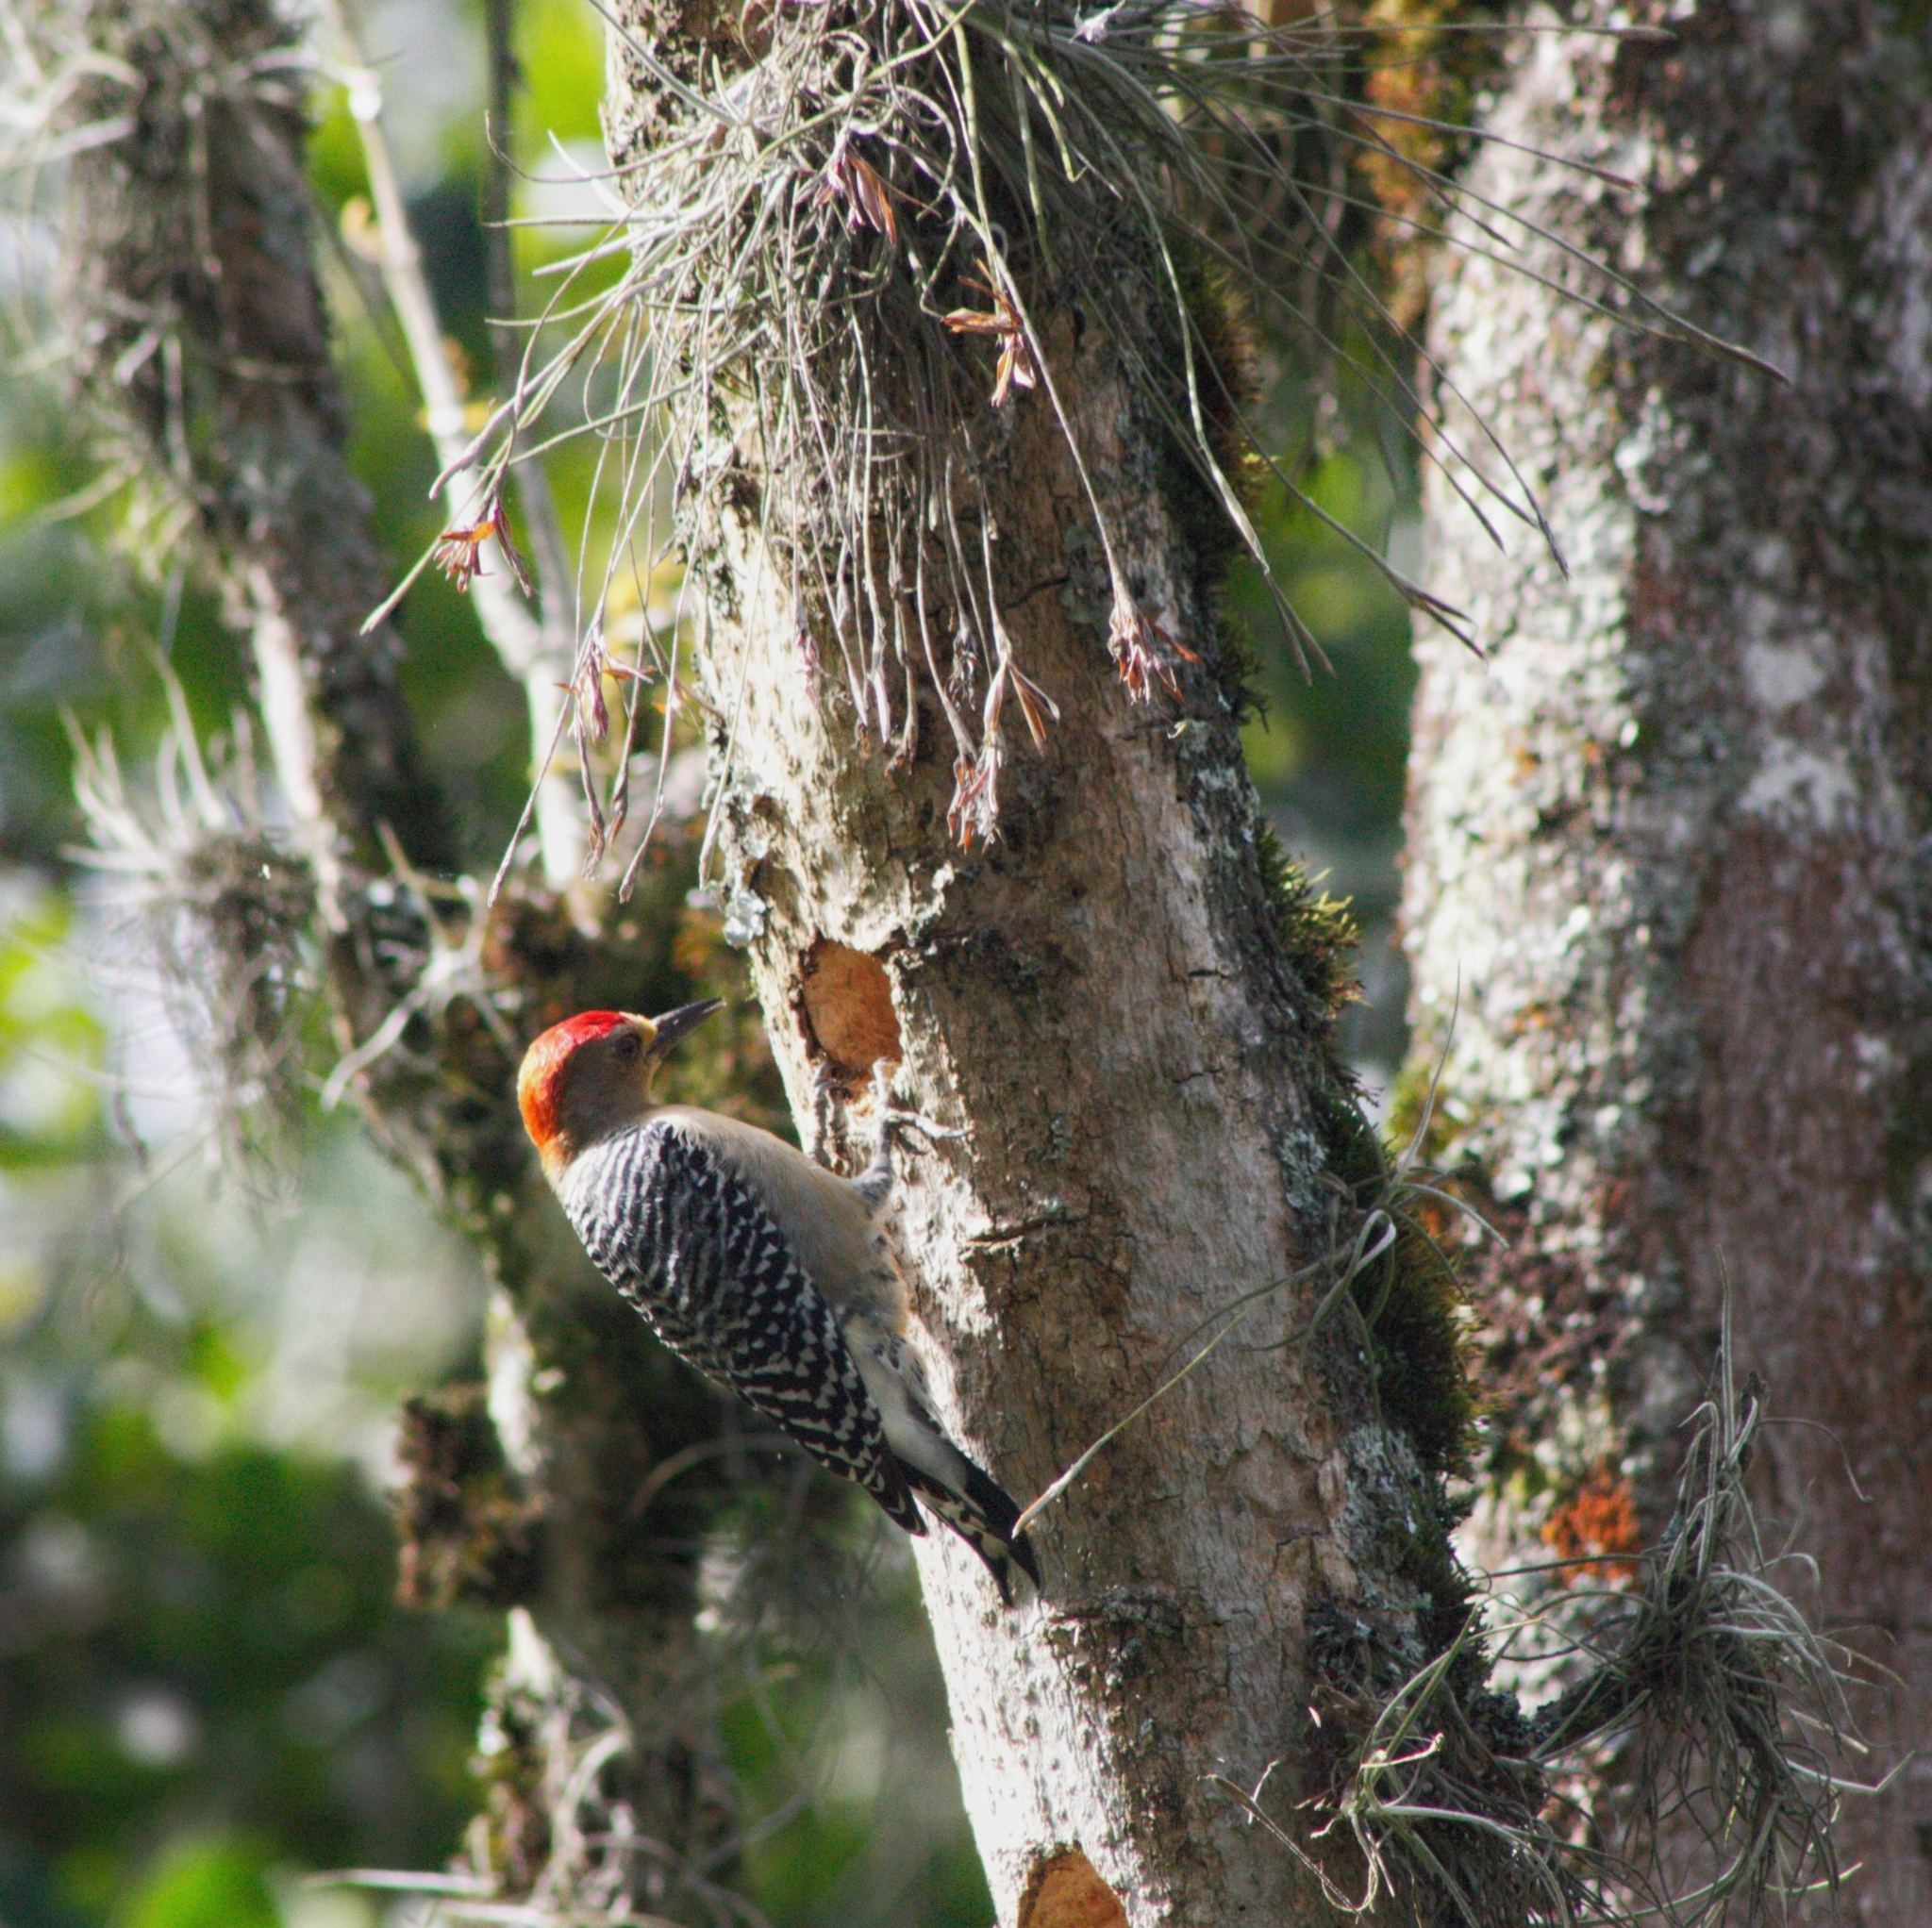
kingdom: Animalia
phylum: Chordata
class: Aves
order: Piciformes
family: Picidae
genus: Melanerpes
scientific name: Melanerpes rubricapillus
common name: Red-crowned woodpecker
